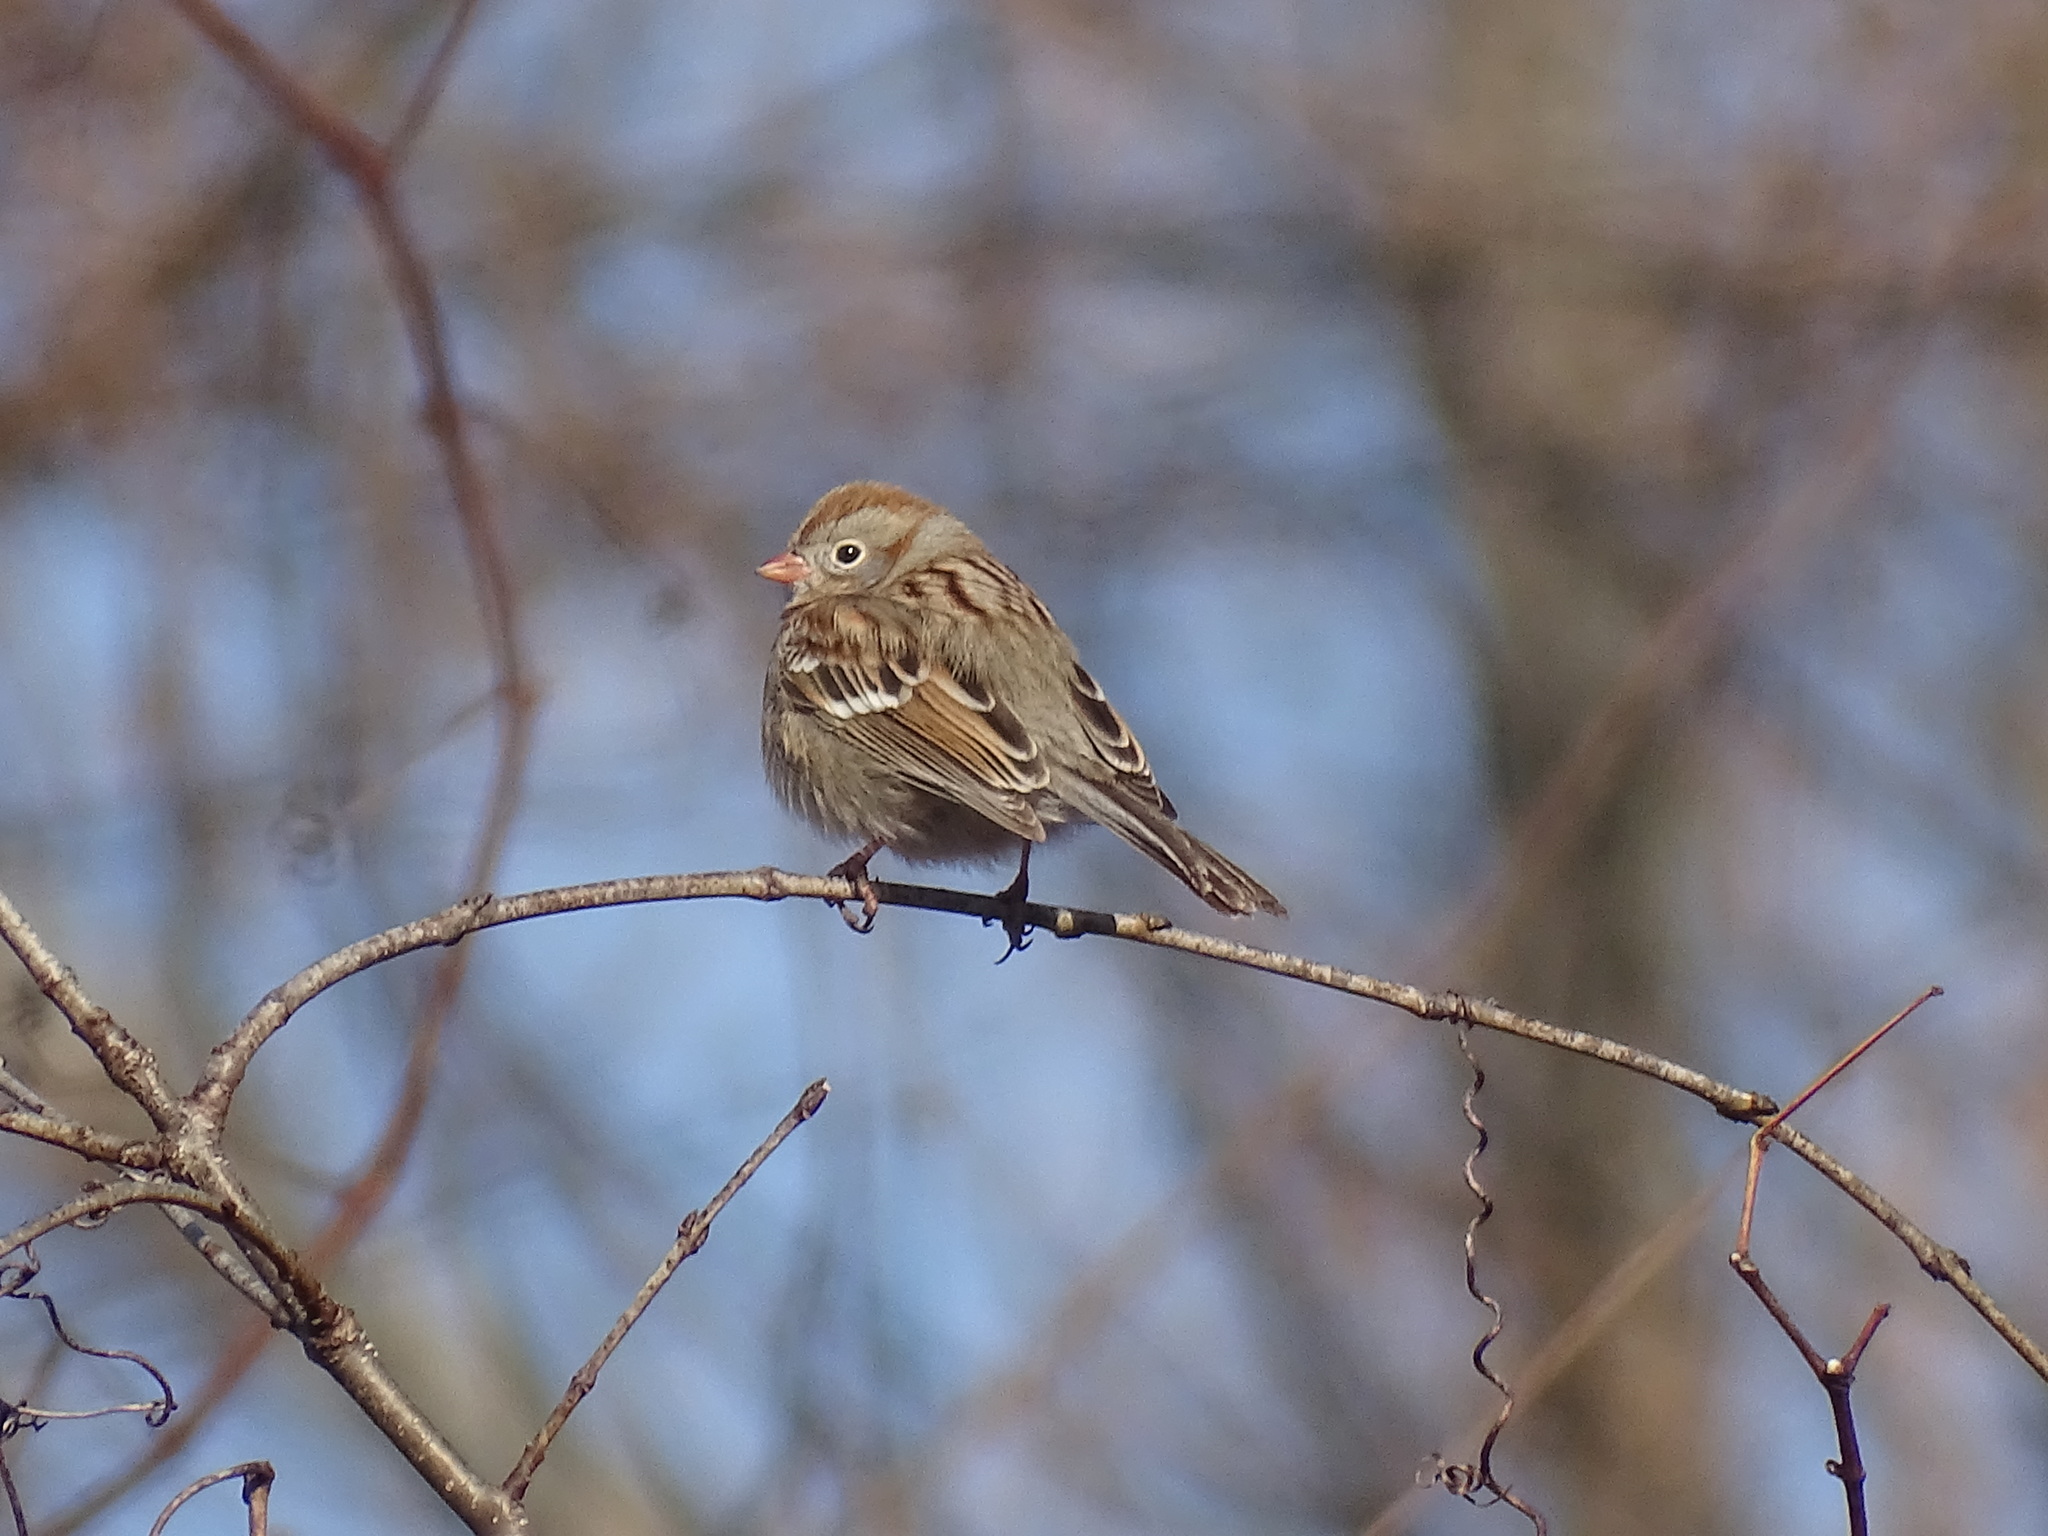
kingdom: Animalia
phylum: Chordata
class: Aves
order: Passeriformes
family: Passerellidae
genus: Spizella
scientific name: Spizella pusilla
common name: Field sparrow
